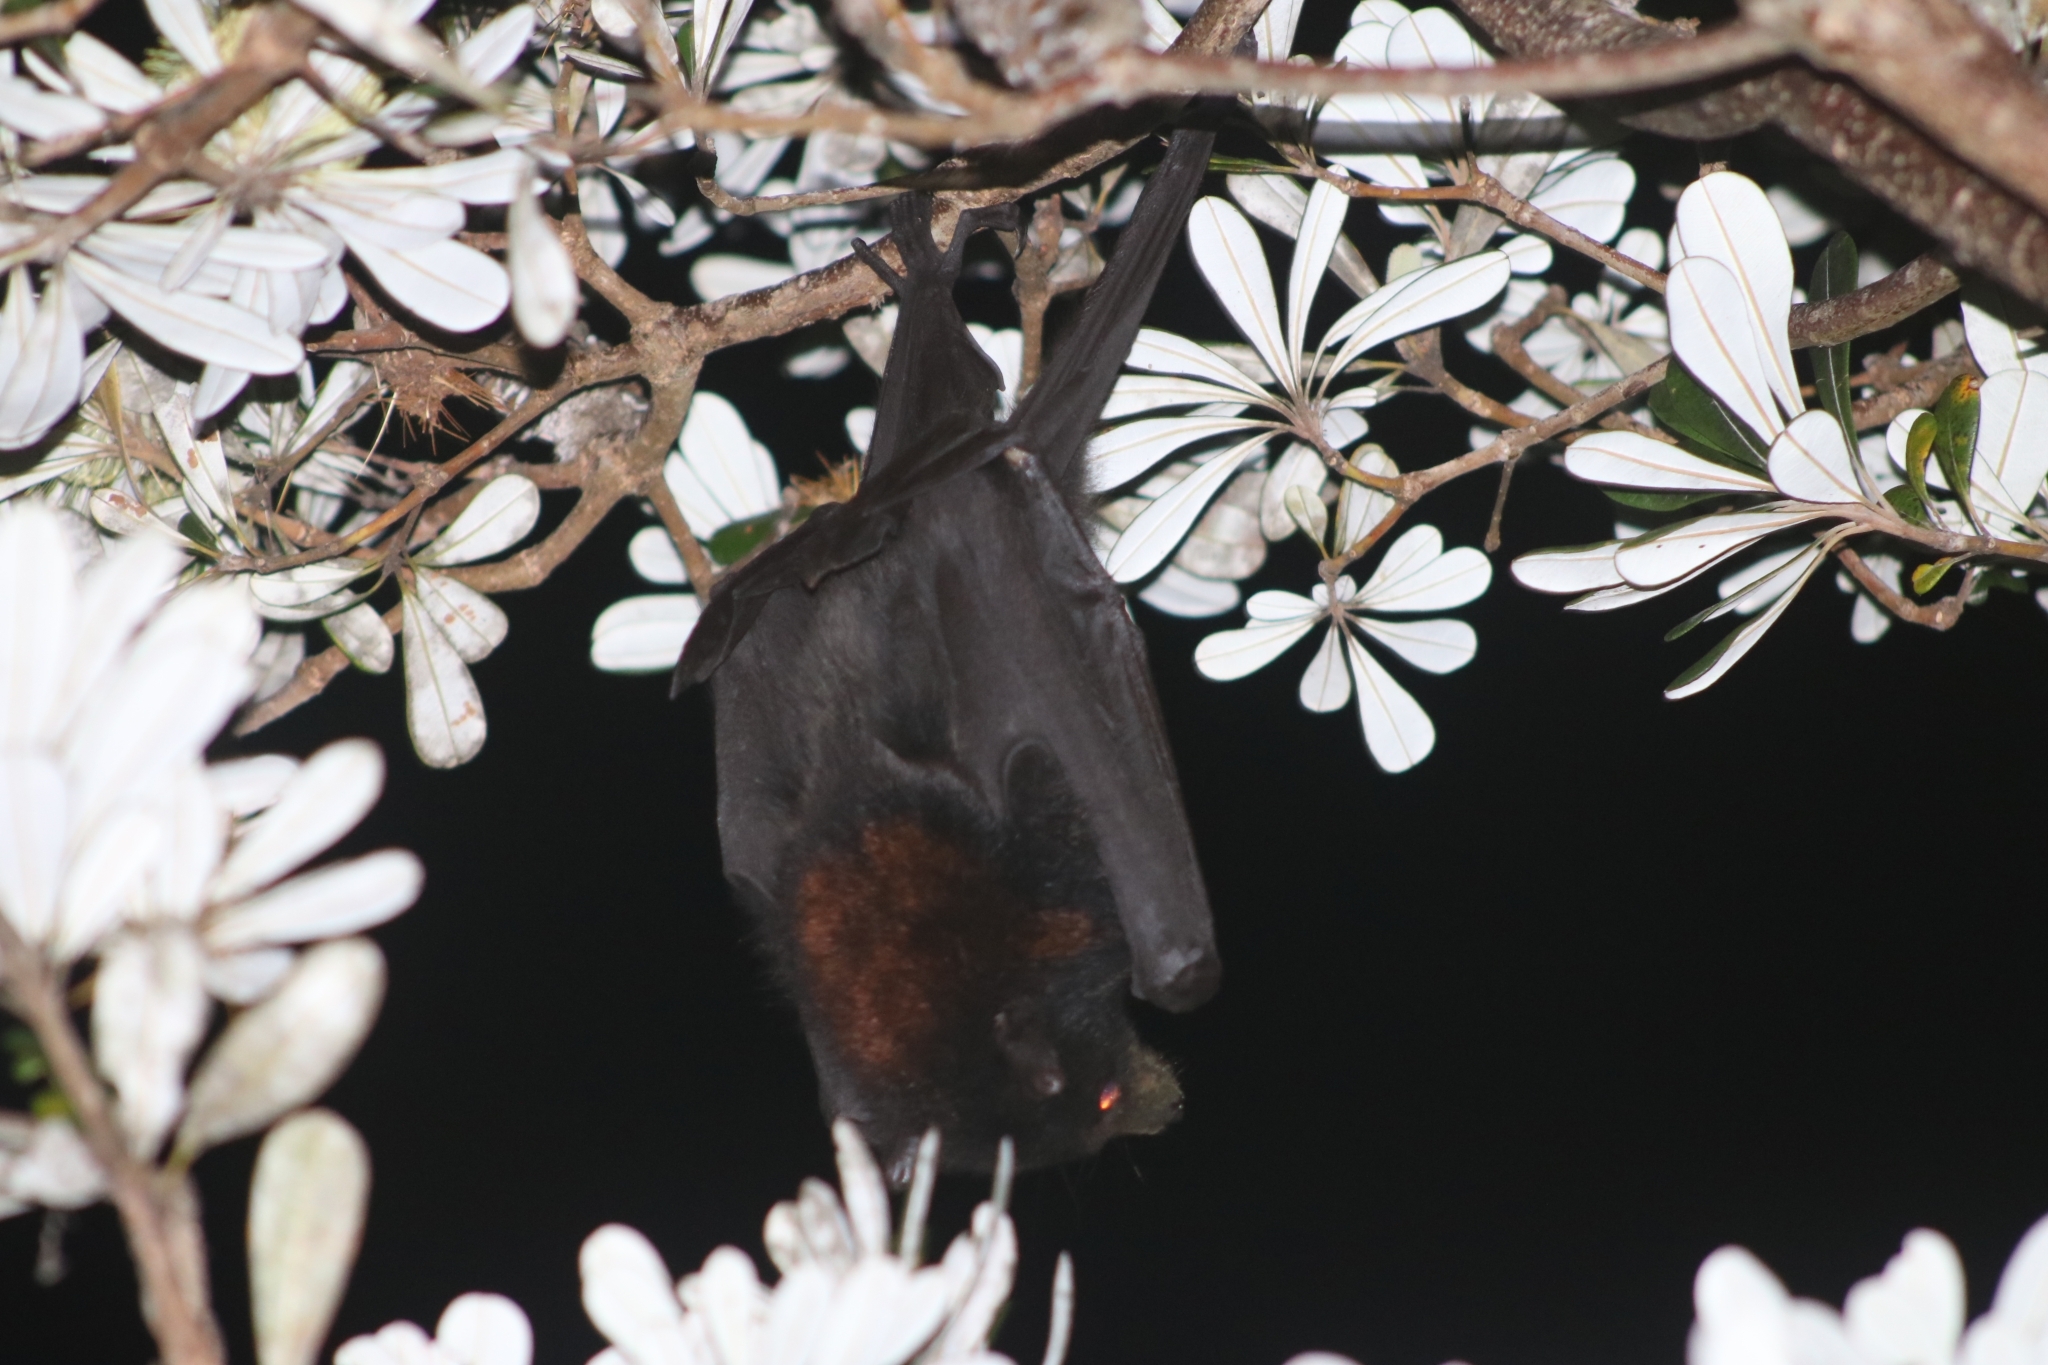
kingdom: Animalia
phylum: Chordata
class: Mammalia
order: Chiroptera
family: Pteropodidae
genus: Pteropus
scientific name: Pteropus alecto
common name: Black flying fox
